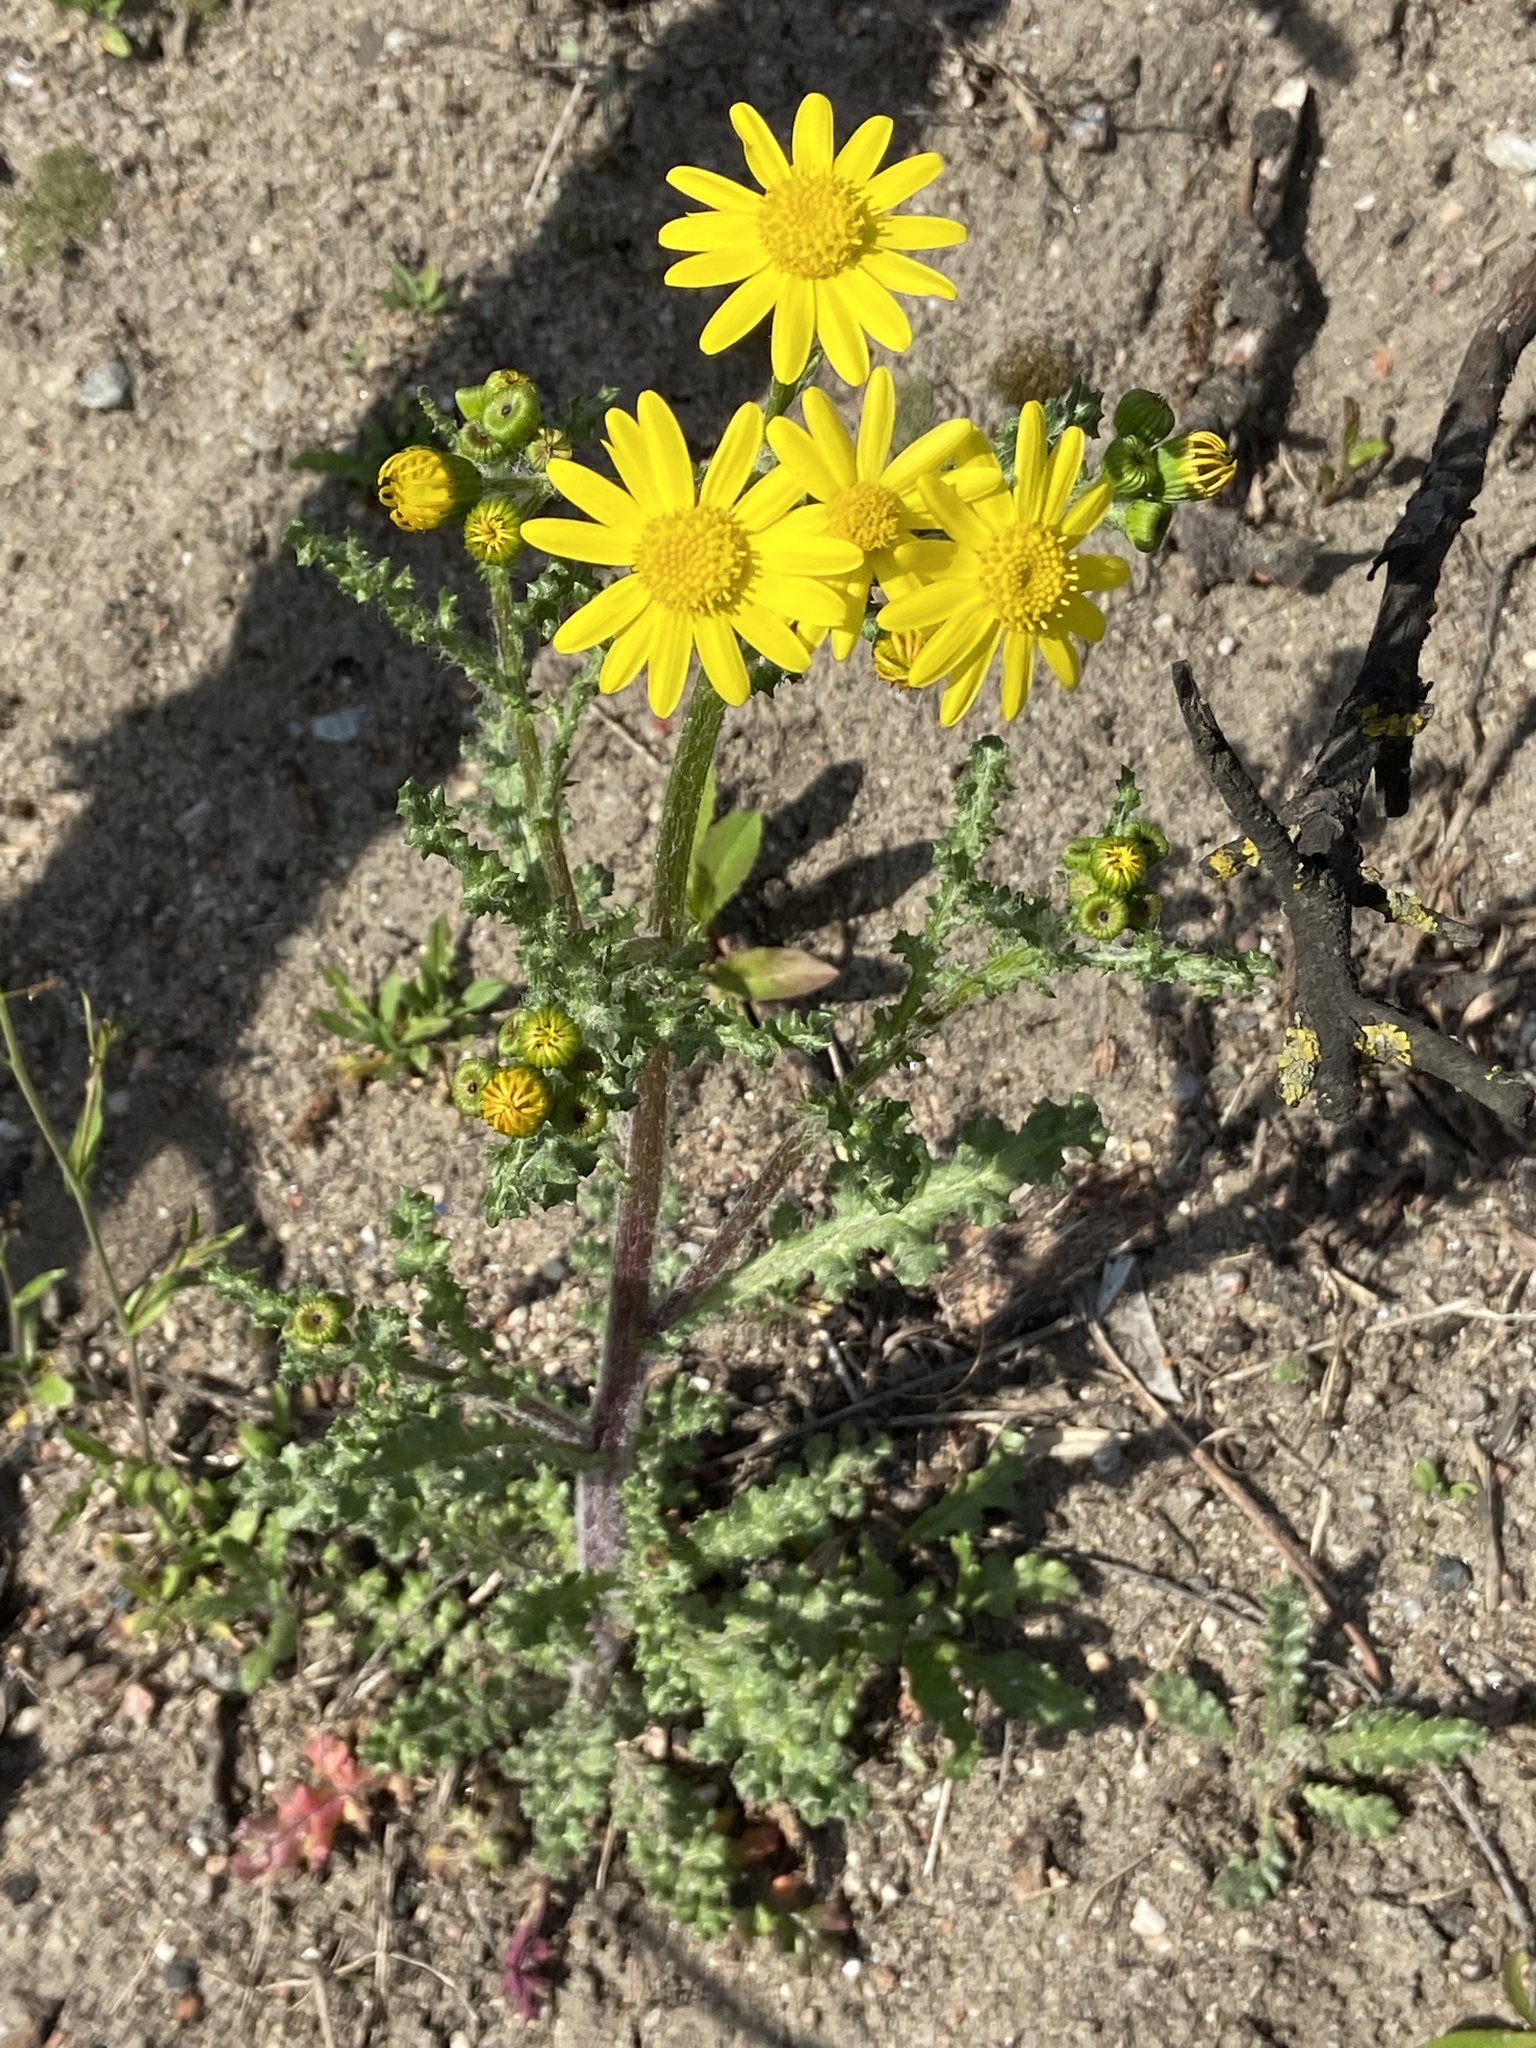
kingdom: Plantae
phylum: Tracheophyta
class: Magnoliopsida
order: Asterales
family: Asteraceae
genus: Senecio
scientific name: Senecio vernalis
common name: Eastern groundsel
